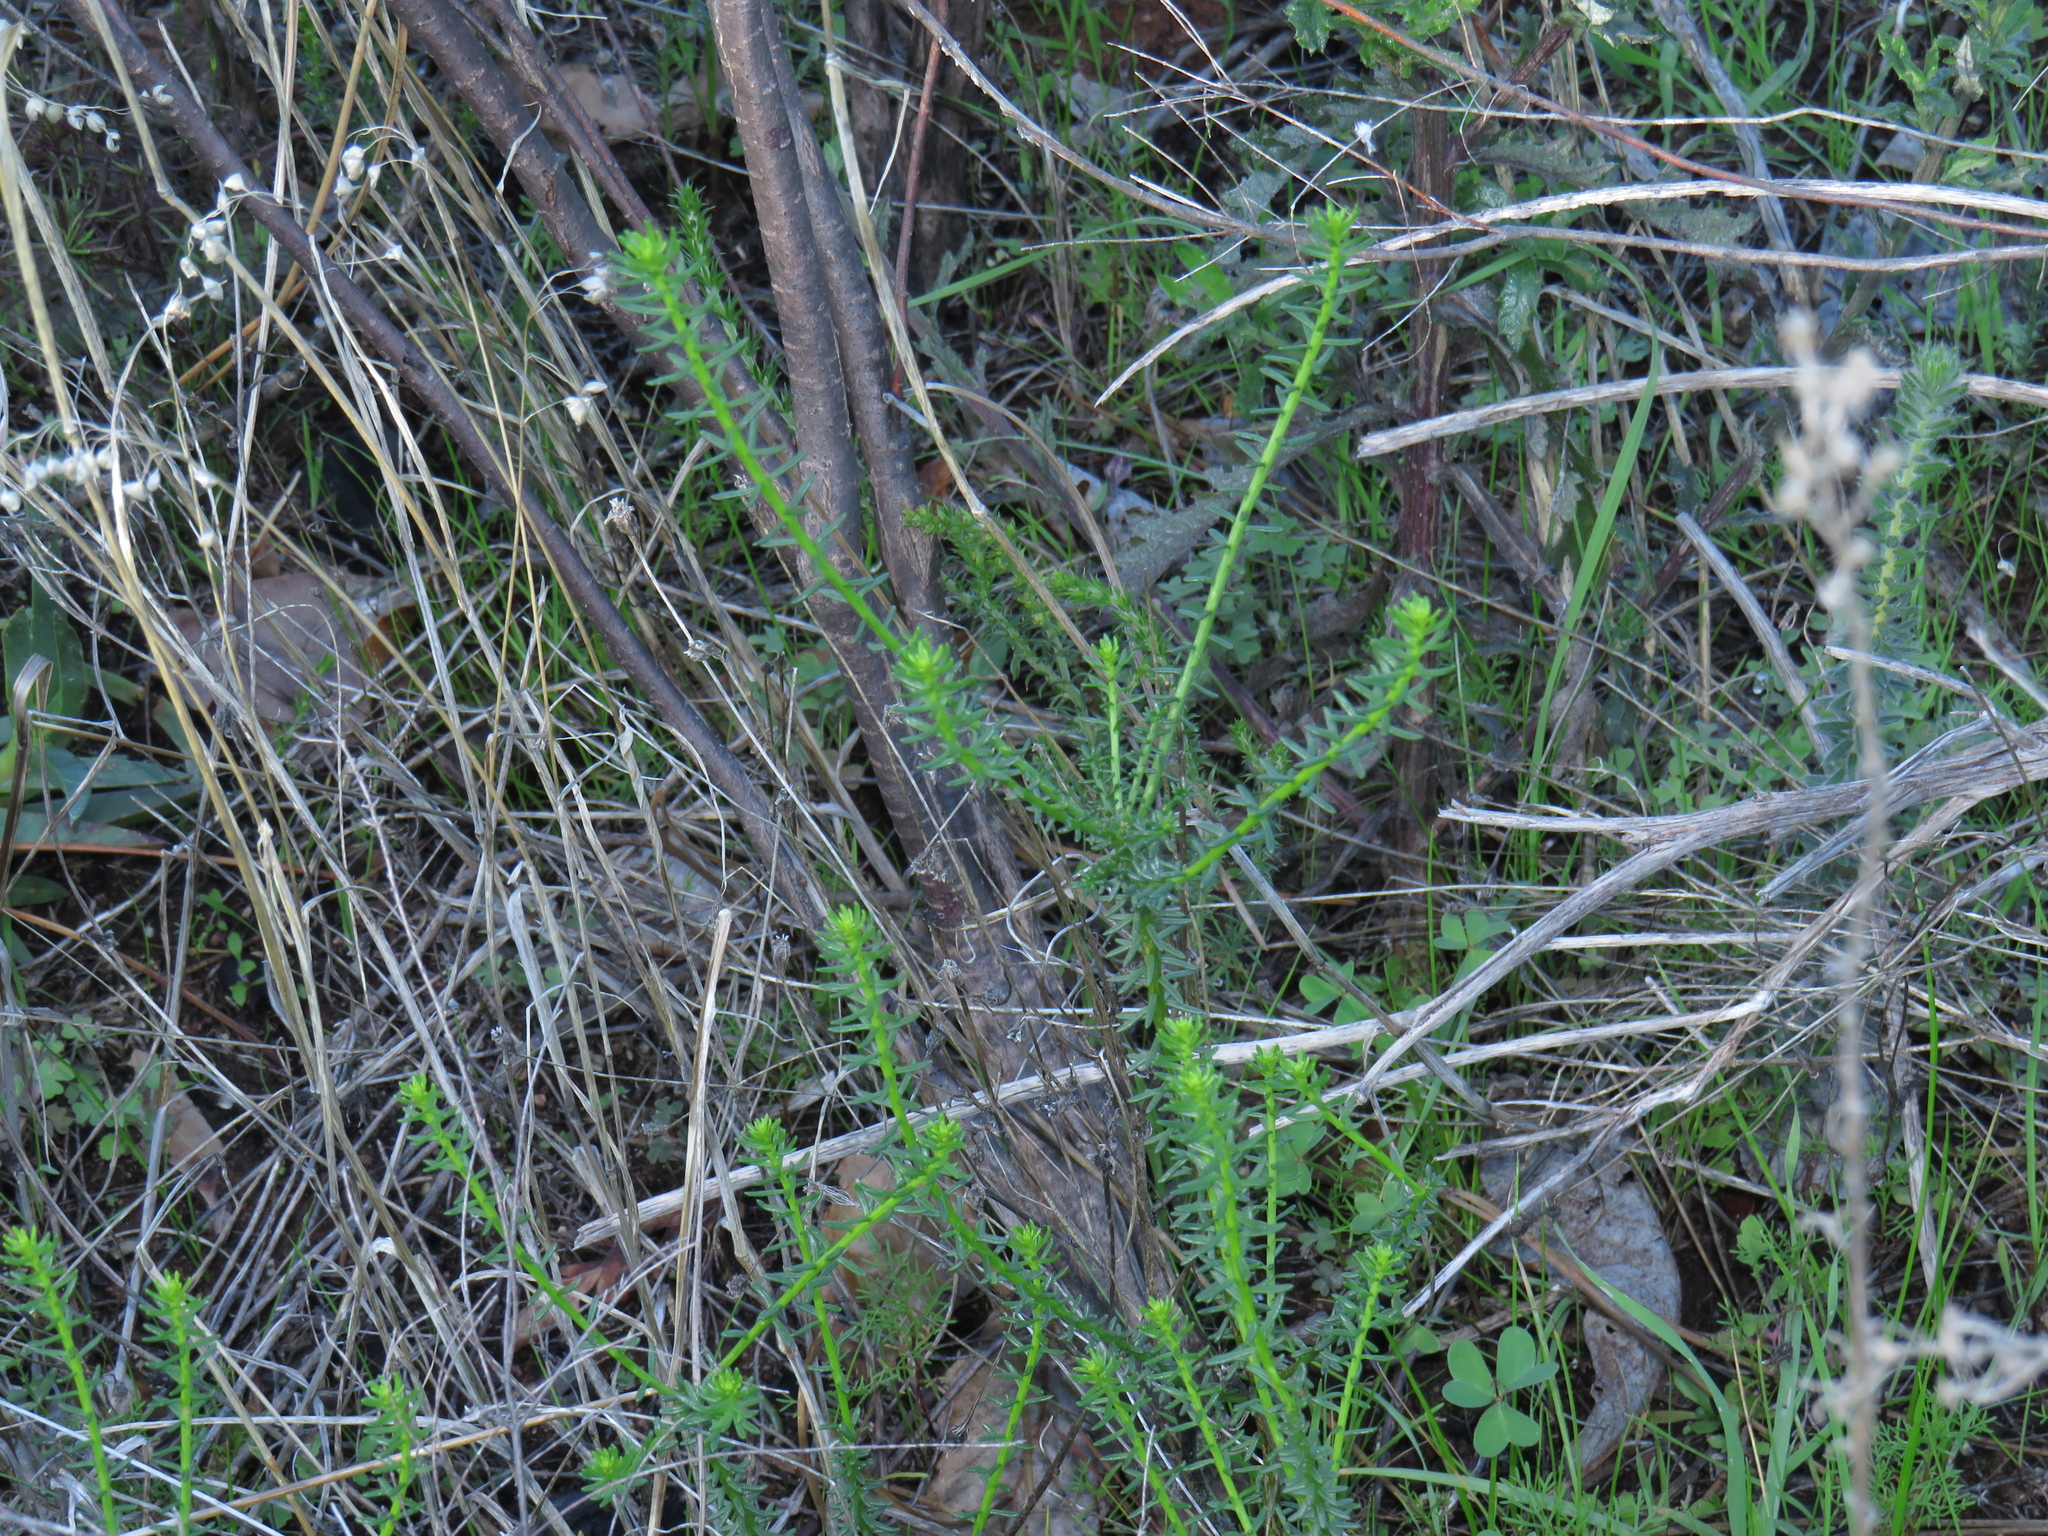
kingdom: Plantae
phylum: Tracheophyta
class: Magnoliopsida
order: Asterales
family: Asteraceae
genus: Chrysocoma
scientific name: Chrysocoma cernua
